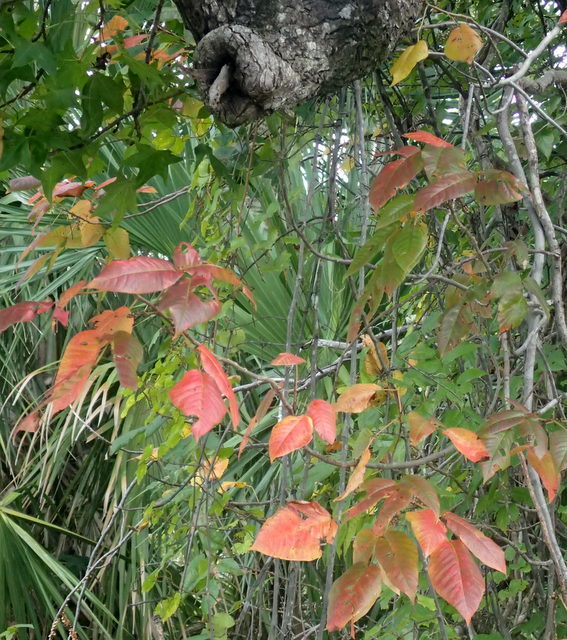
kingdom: Plantae
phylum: Tracheophyta
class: Magnoliopsida
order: Sapindales
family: Anacardiaceae
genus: Toxicodendron
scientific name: Toxicodendron radicans
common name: Poison ivy
